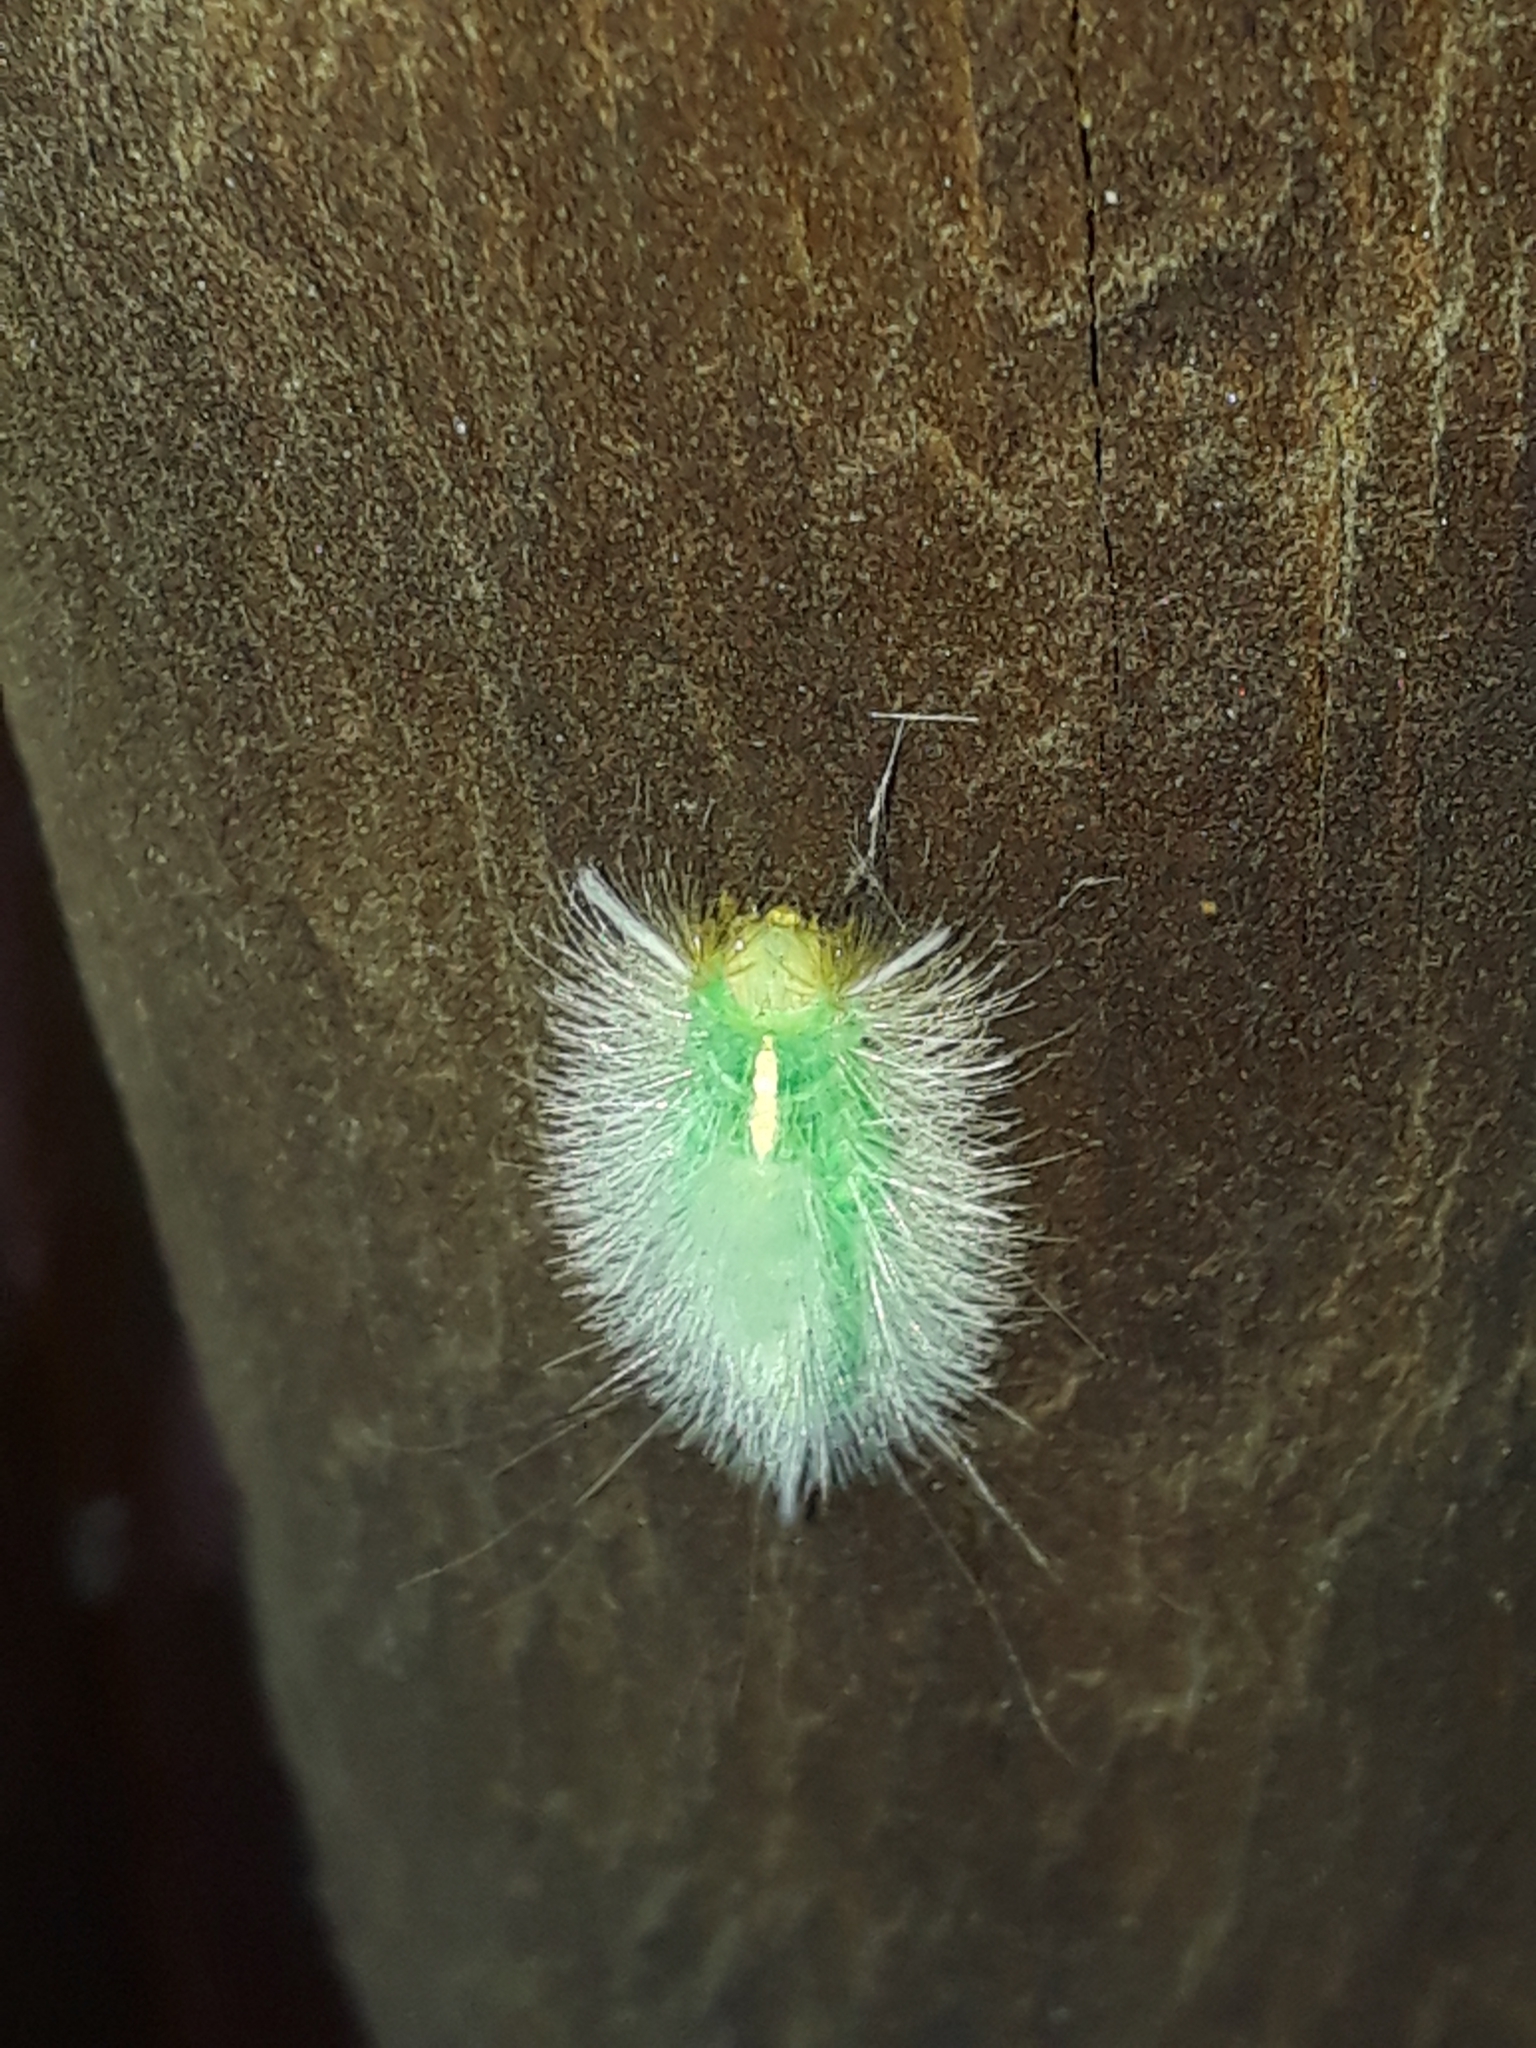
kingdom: Animalia
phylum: Arthropoda
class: Insecta
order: Lepidoptera
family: Erebidae
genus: Laelia
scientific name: Laelia fusca
